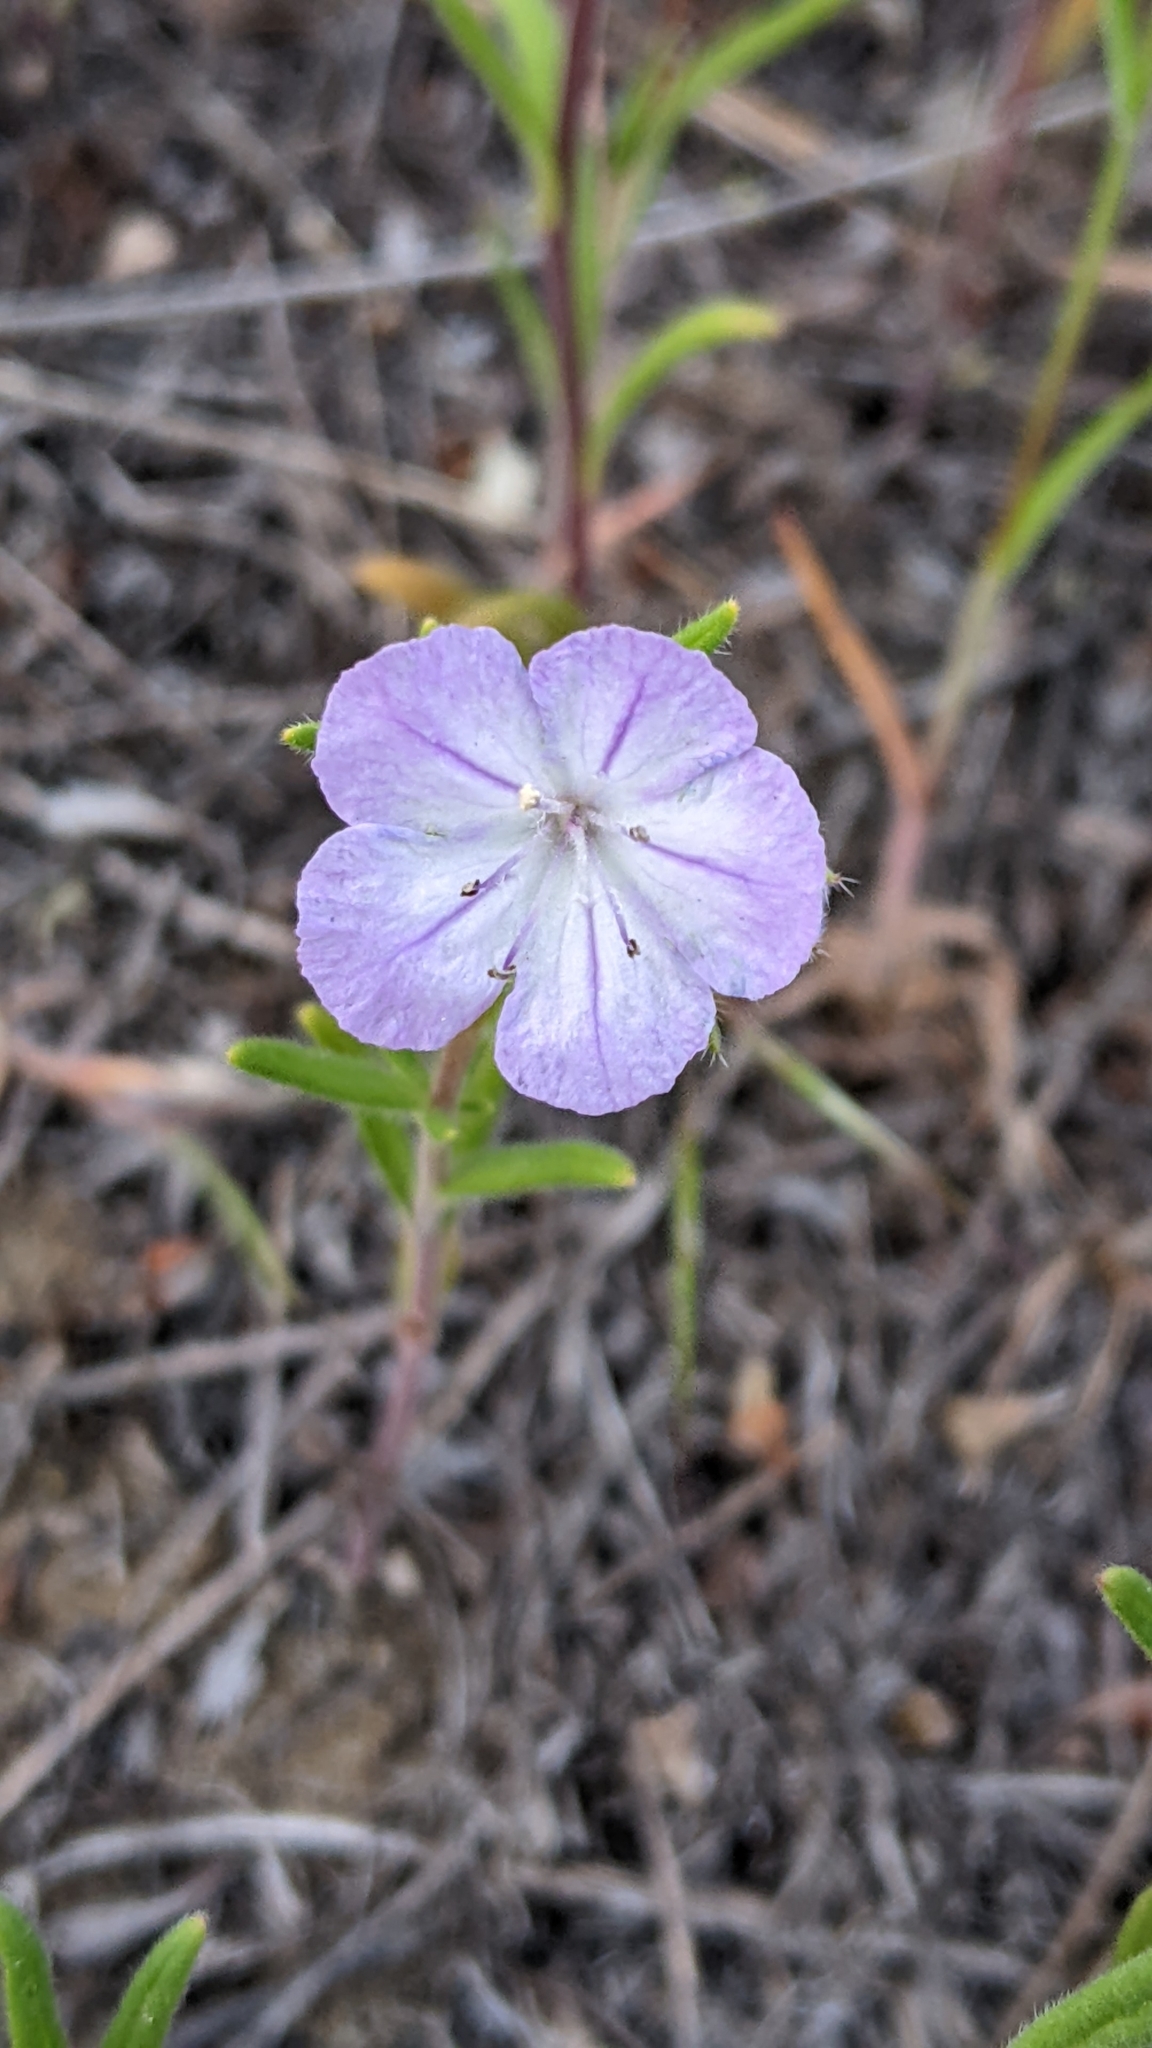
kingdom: Plantae
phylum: Tracheophyta
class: Magnoliopsida
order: Boraginales
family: Hydrophyllaceae
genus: Phacelia
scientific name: Phacelia linearis
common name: Linear-leaved phacelia
